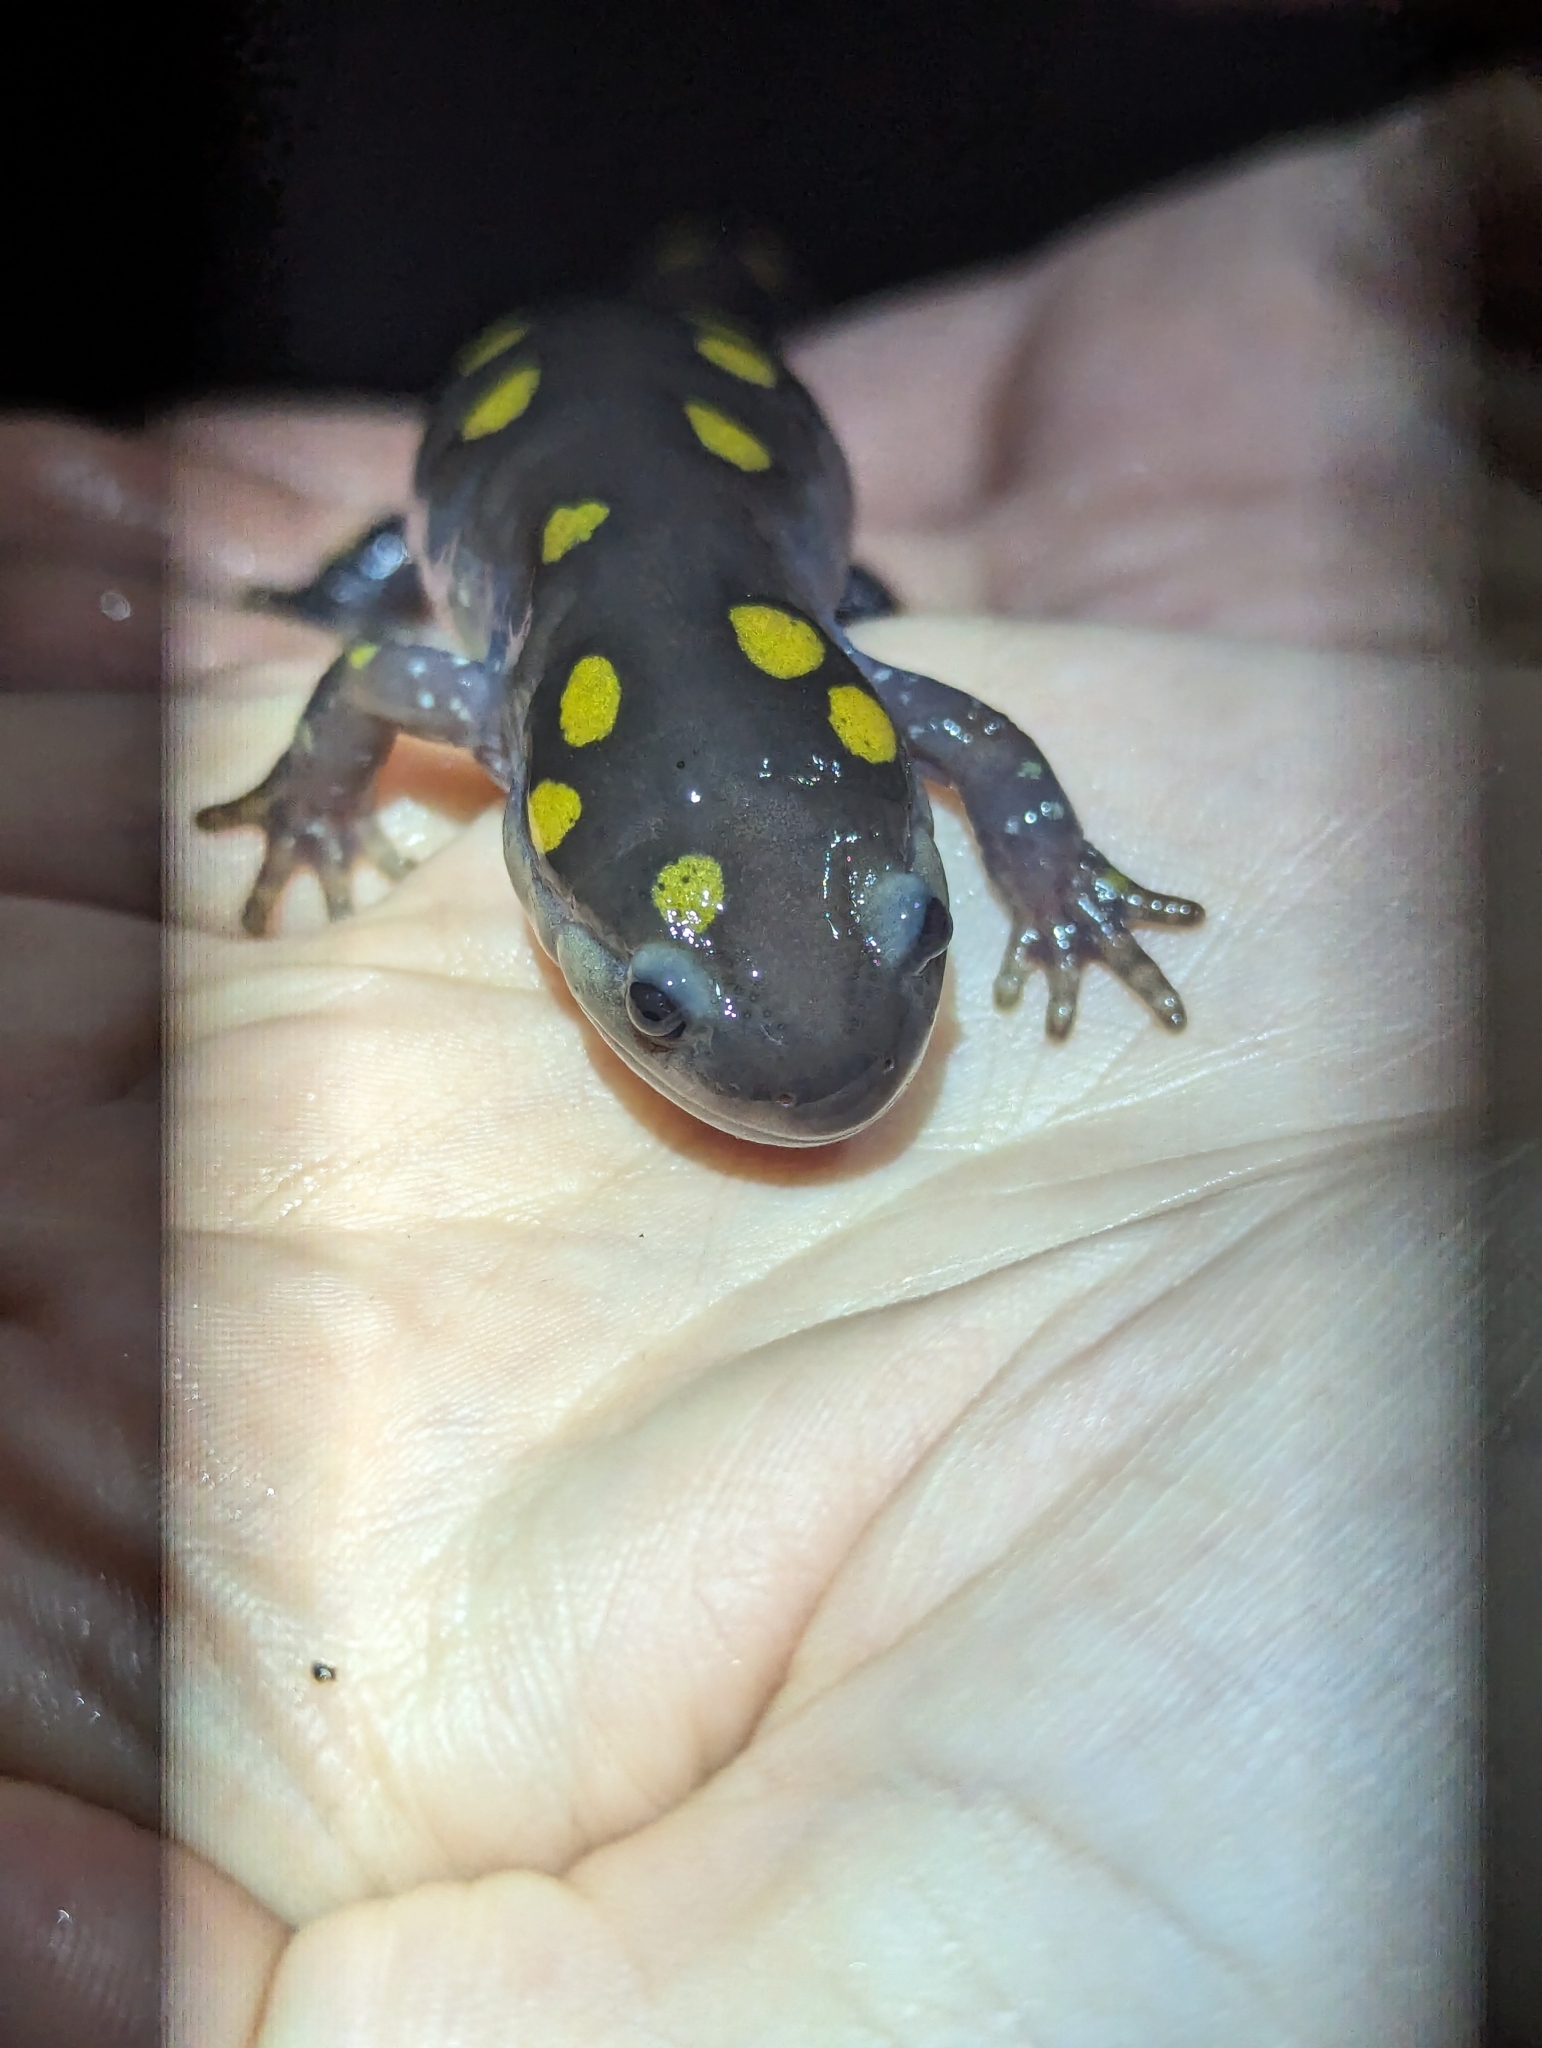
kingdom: Animalia
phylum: Chordata
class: Amphibia
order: Caudata
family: Ambystomatidae
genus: Ambystoma
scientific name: Ambystoma maculatum
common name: Spotted salamander
